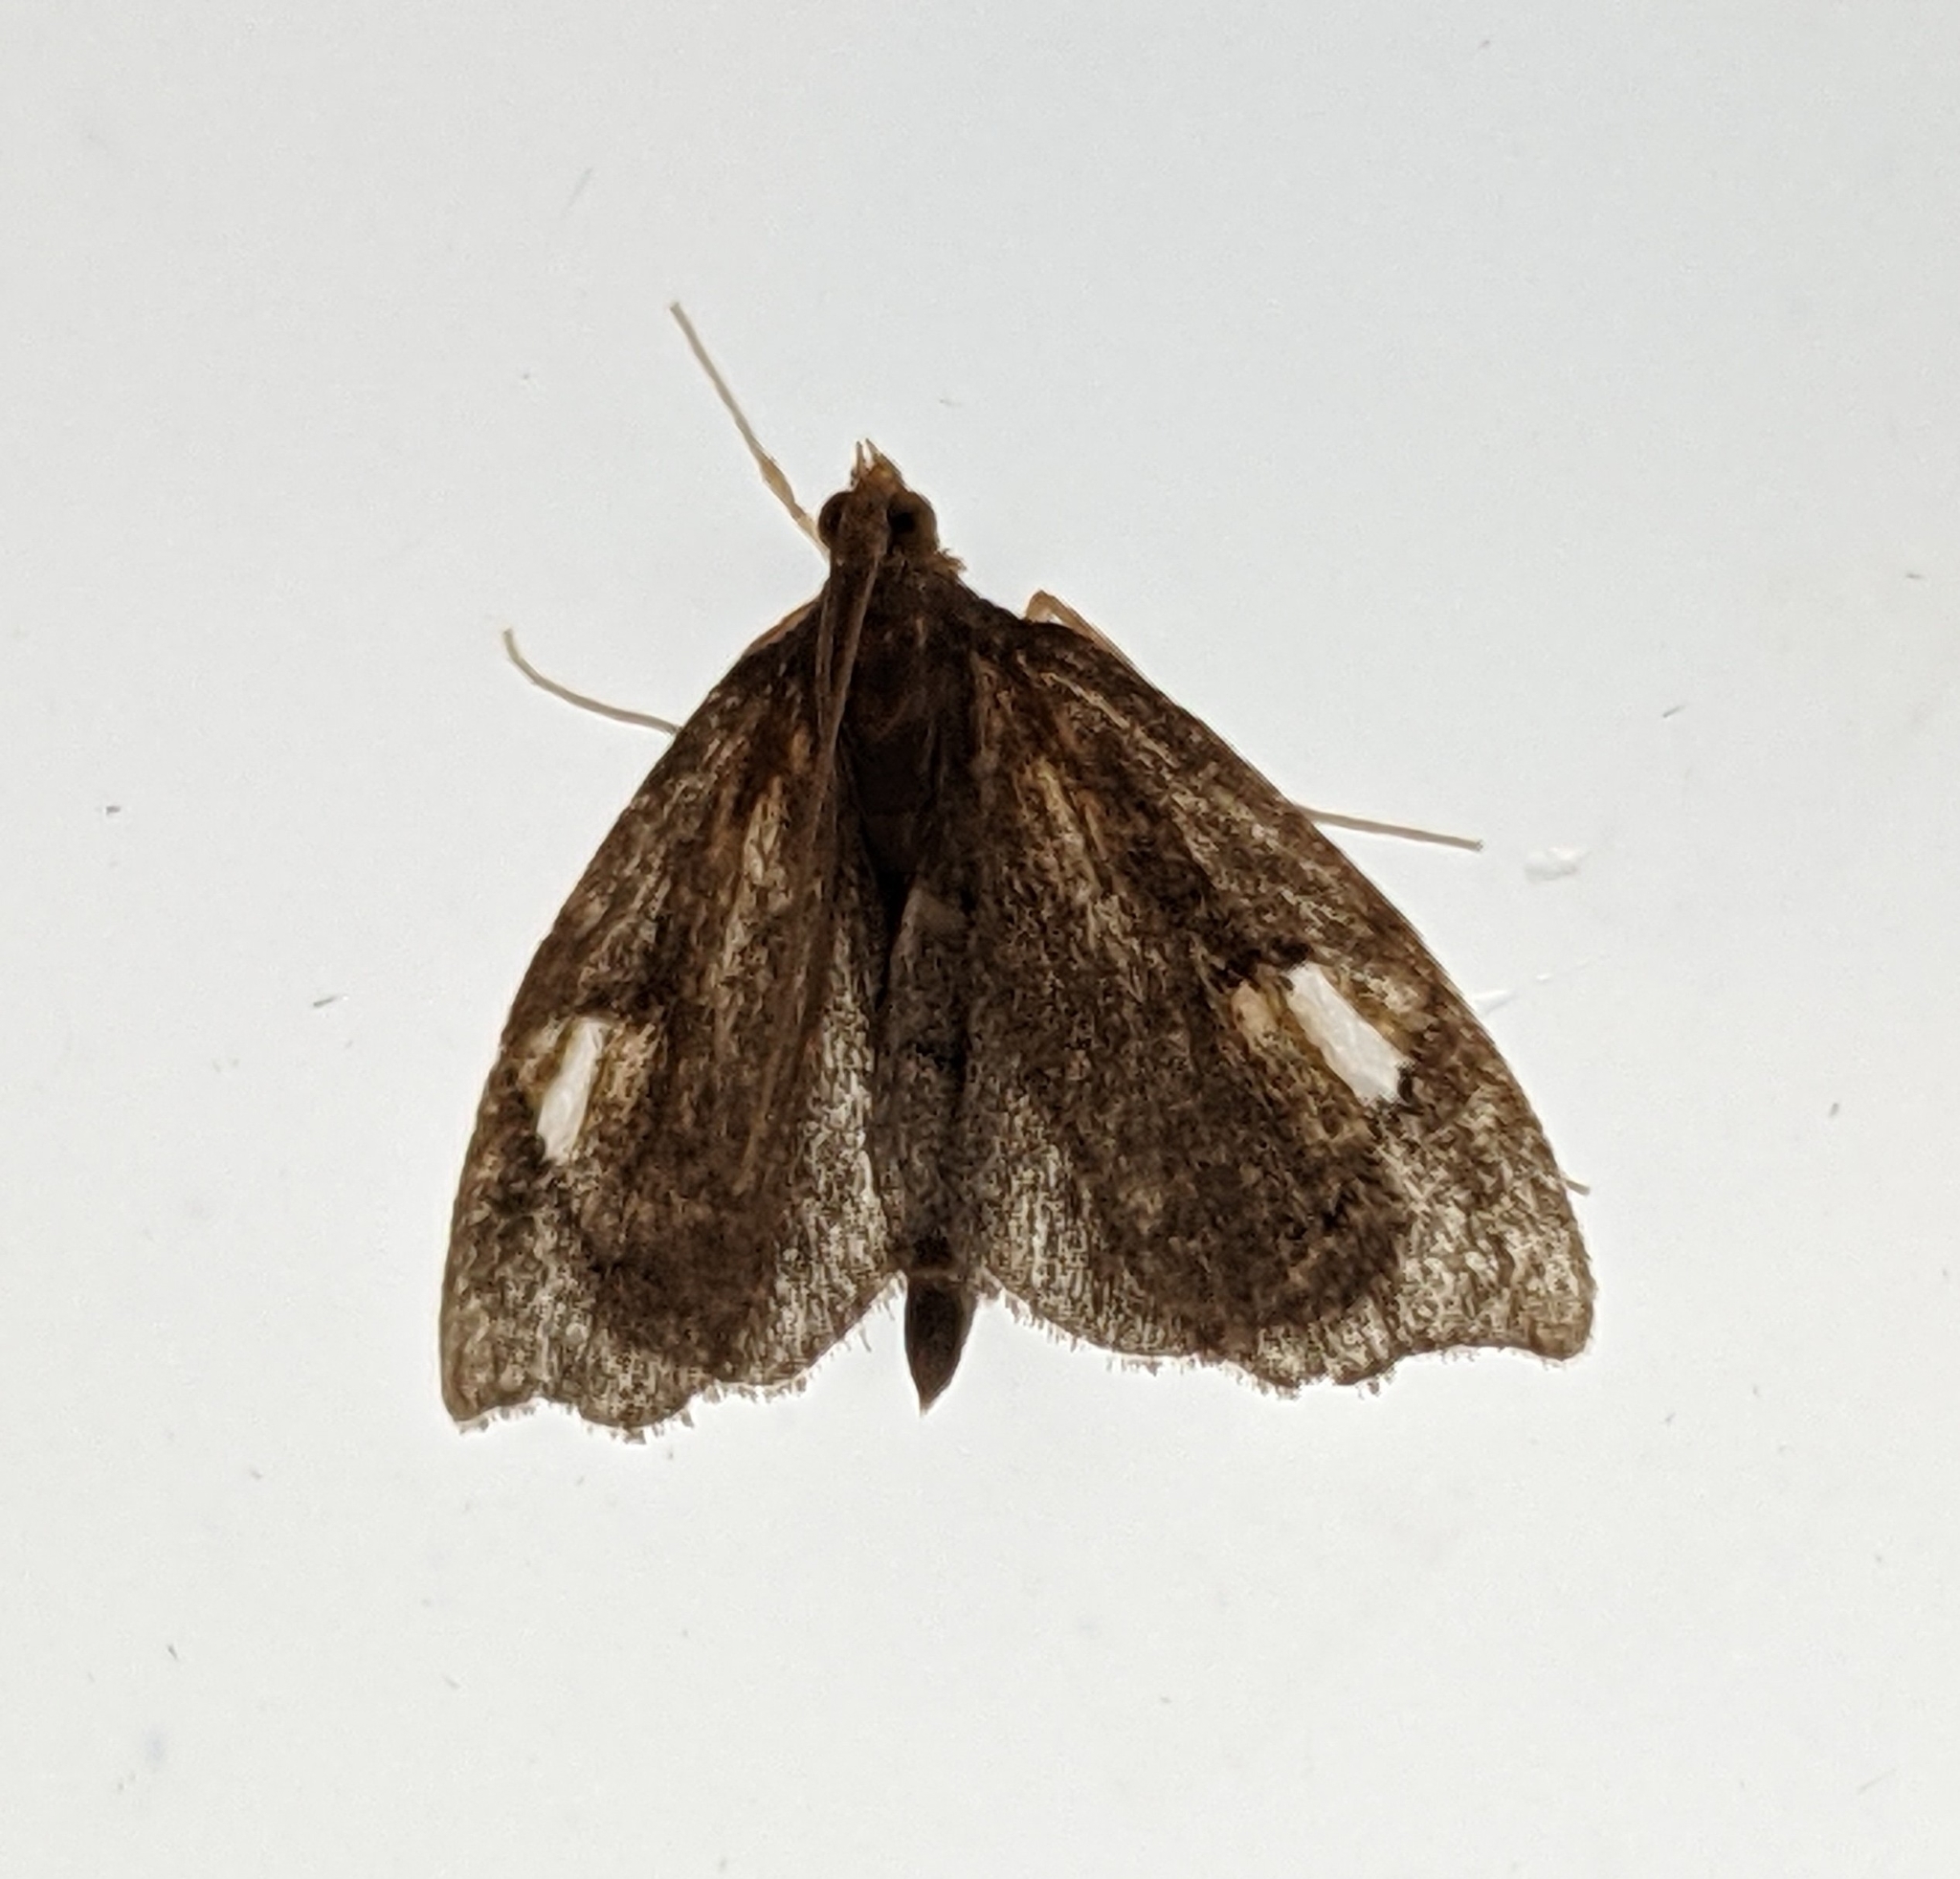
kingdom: Animalia
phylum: Arthropoda
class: Insecta
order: Lepidoptera
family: Crambidae
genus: Perispasta
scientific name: Perispasta caeculalis
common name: Titian peale's moth
